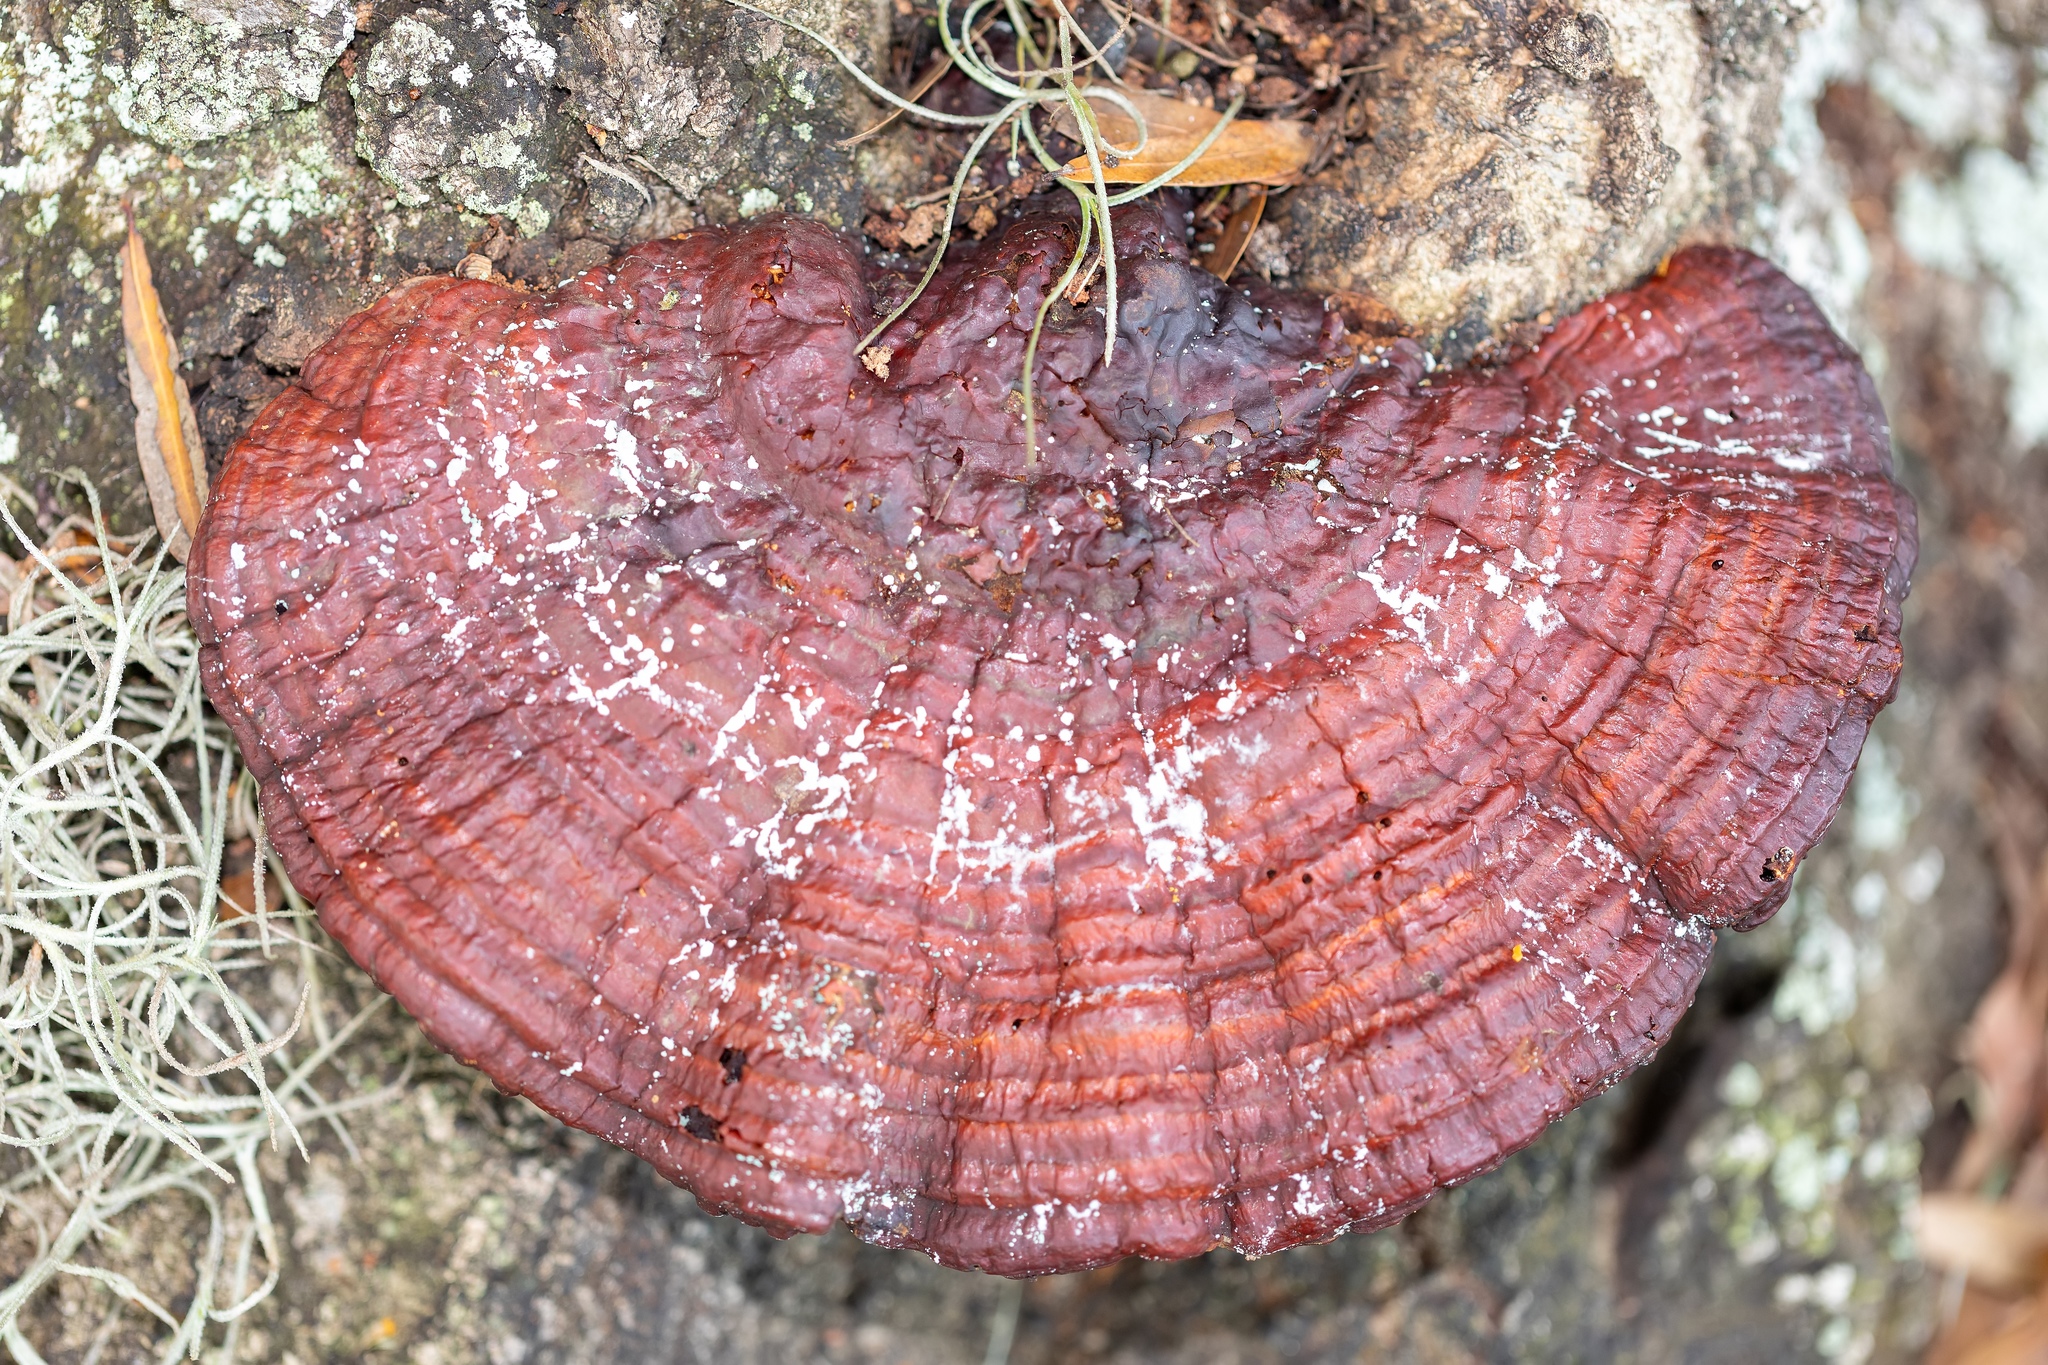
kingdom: Fungi
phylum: Basidiomycota
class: Agaricomycetes
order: Polyporales
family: Polyporaceae
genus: Ganoderma
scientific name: Ganoderma resinaceum
